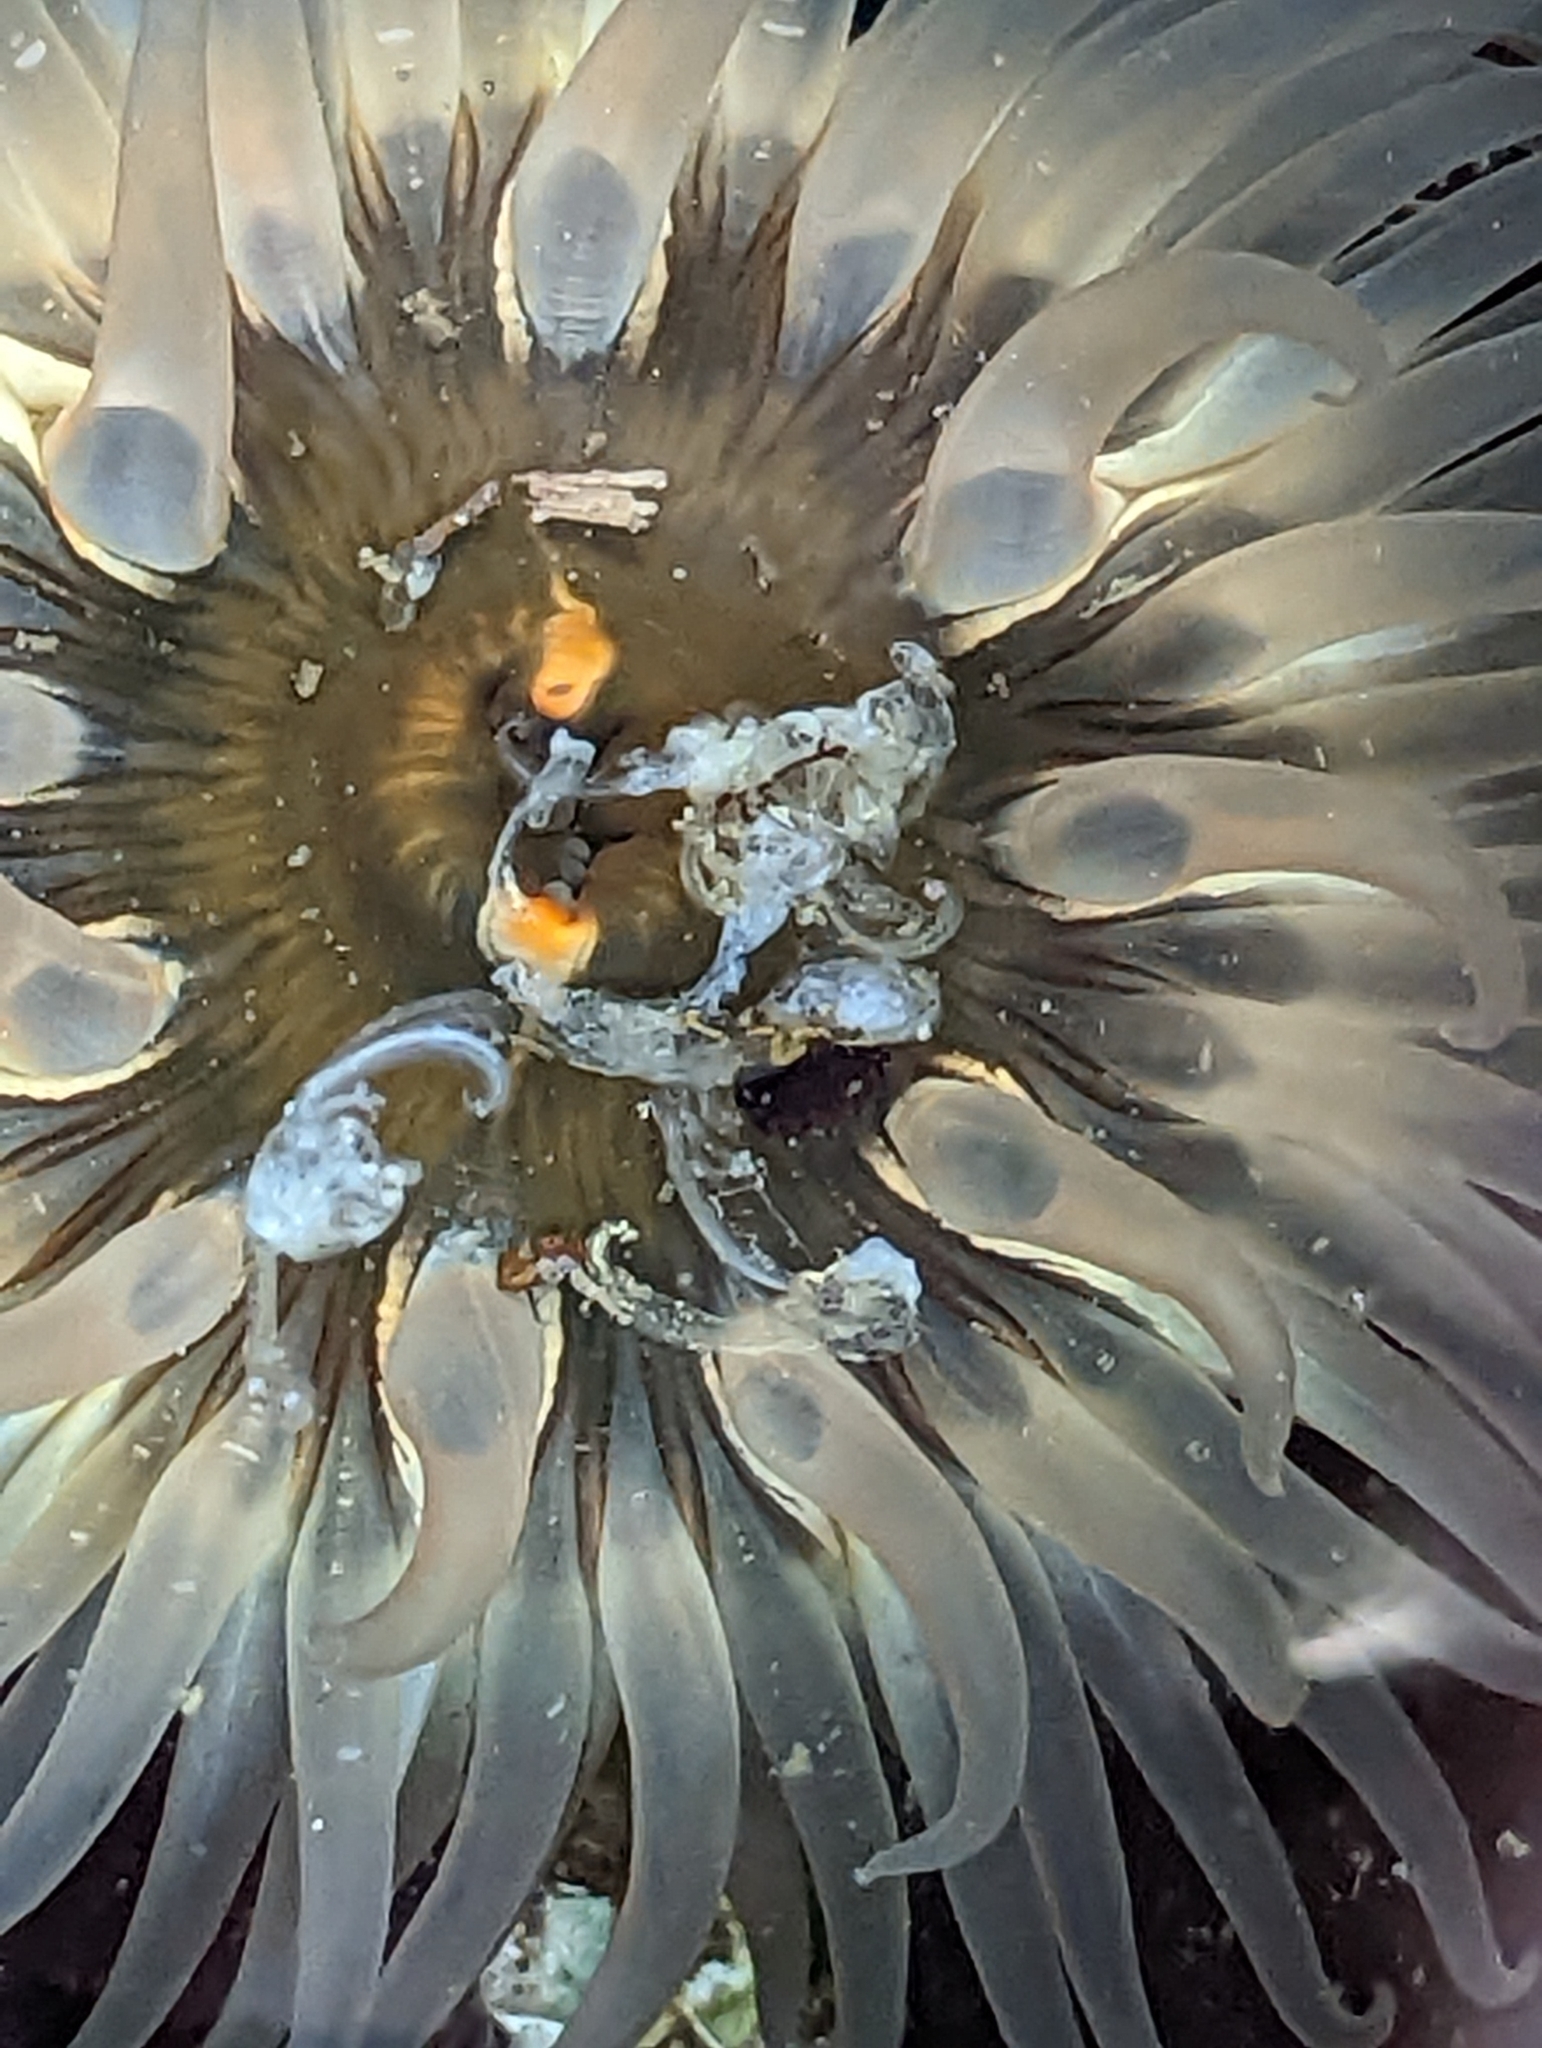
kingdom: Animalia
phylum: Cnidaria
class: Anthozoa
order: Actiniaria
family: Actiniidae
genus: Anthopleura
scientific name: Anthopleura artemisia
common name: Buried sea anemone
